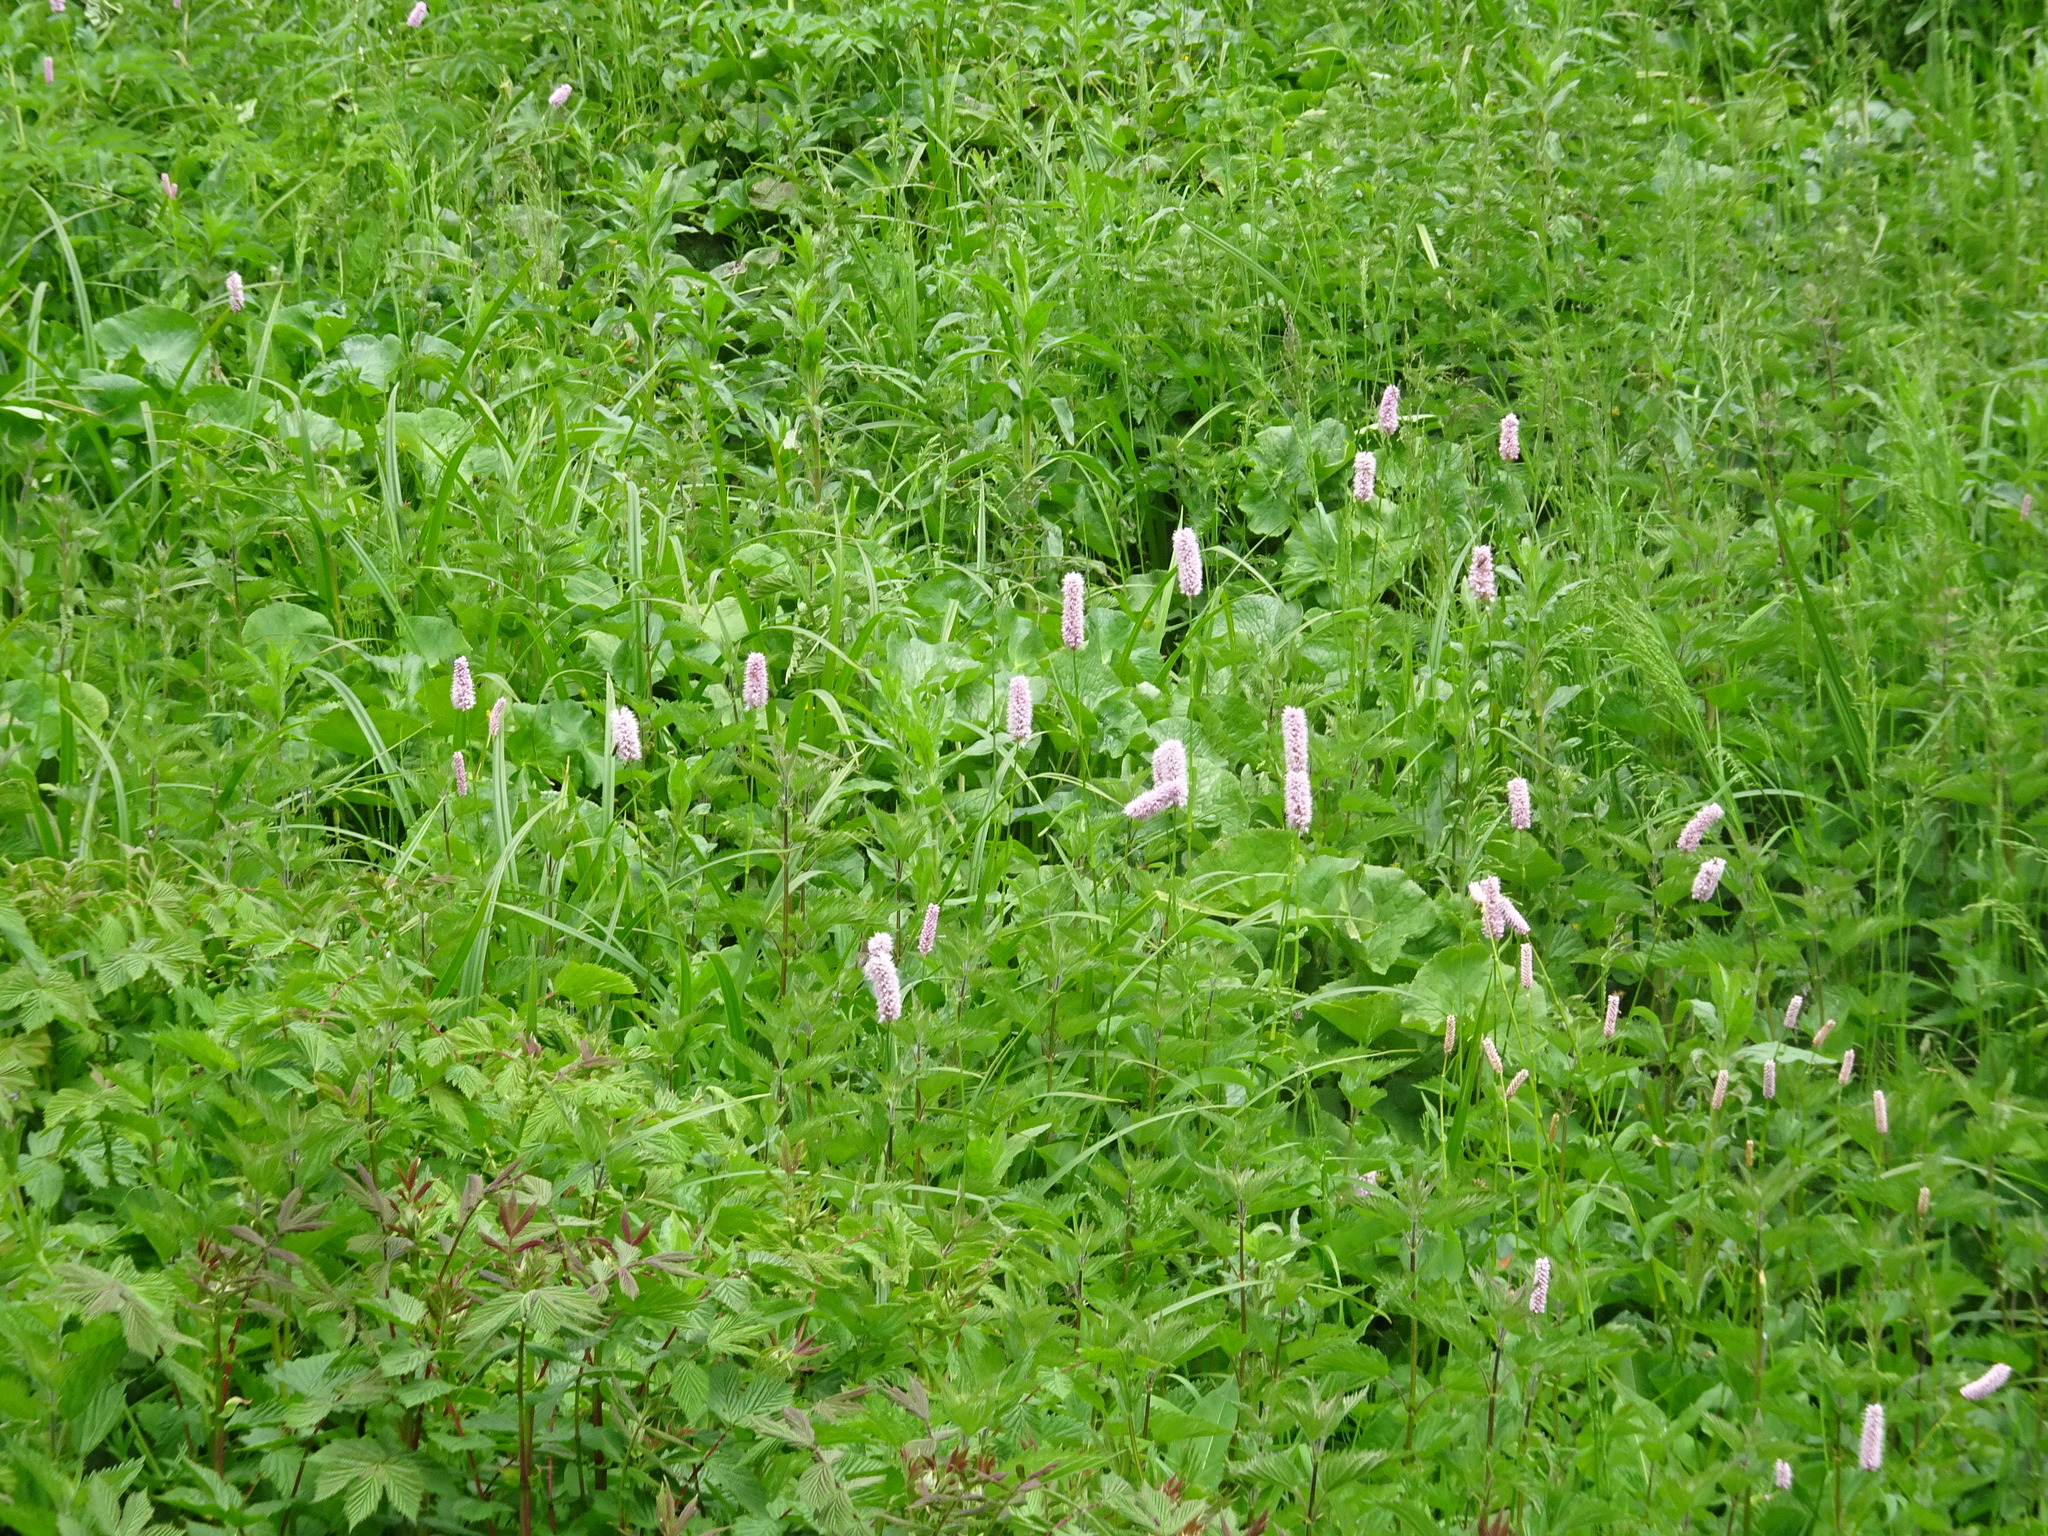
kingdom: Plantae
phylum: Tracheophyta
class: Magnoliopsida
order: Caryophyllales
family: Polygonaceae
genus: Bistorta
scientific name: Bistorta officinalis
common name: Common bistort
